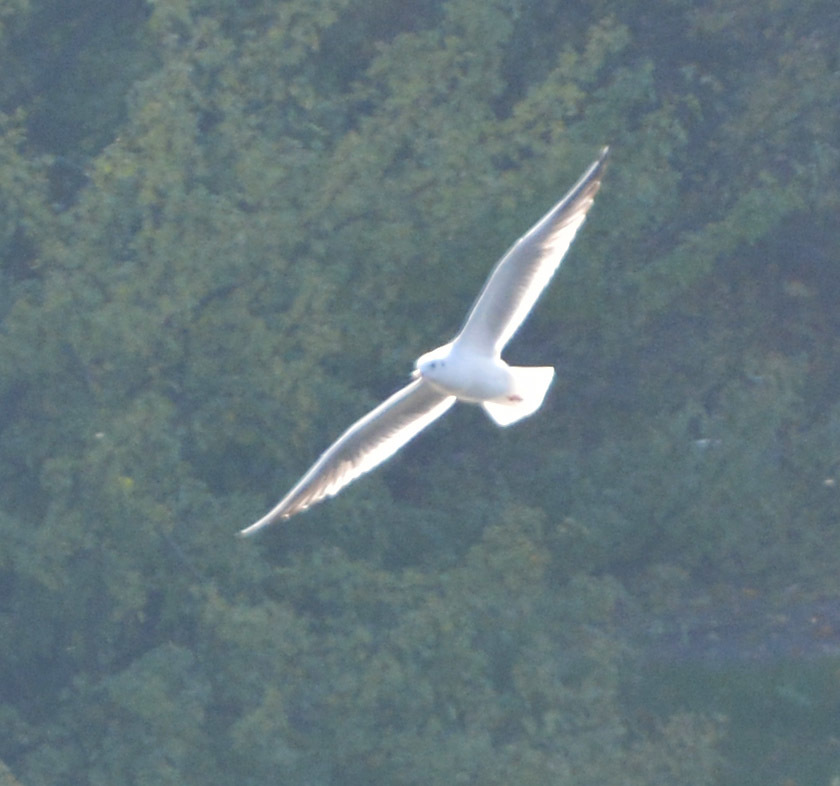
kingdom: Animalia
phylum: Chordata
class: Aves
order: Charadriiformes
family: Laridae
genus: Chroicocephalus
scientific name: Chroicocephalus ridibundus
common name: Black-headed gull
